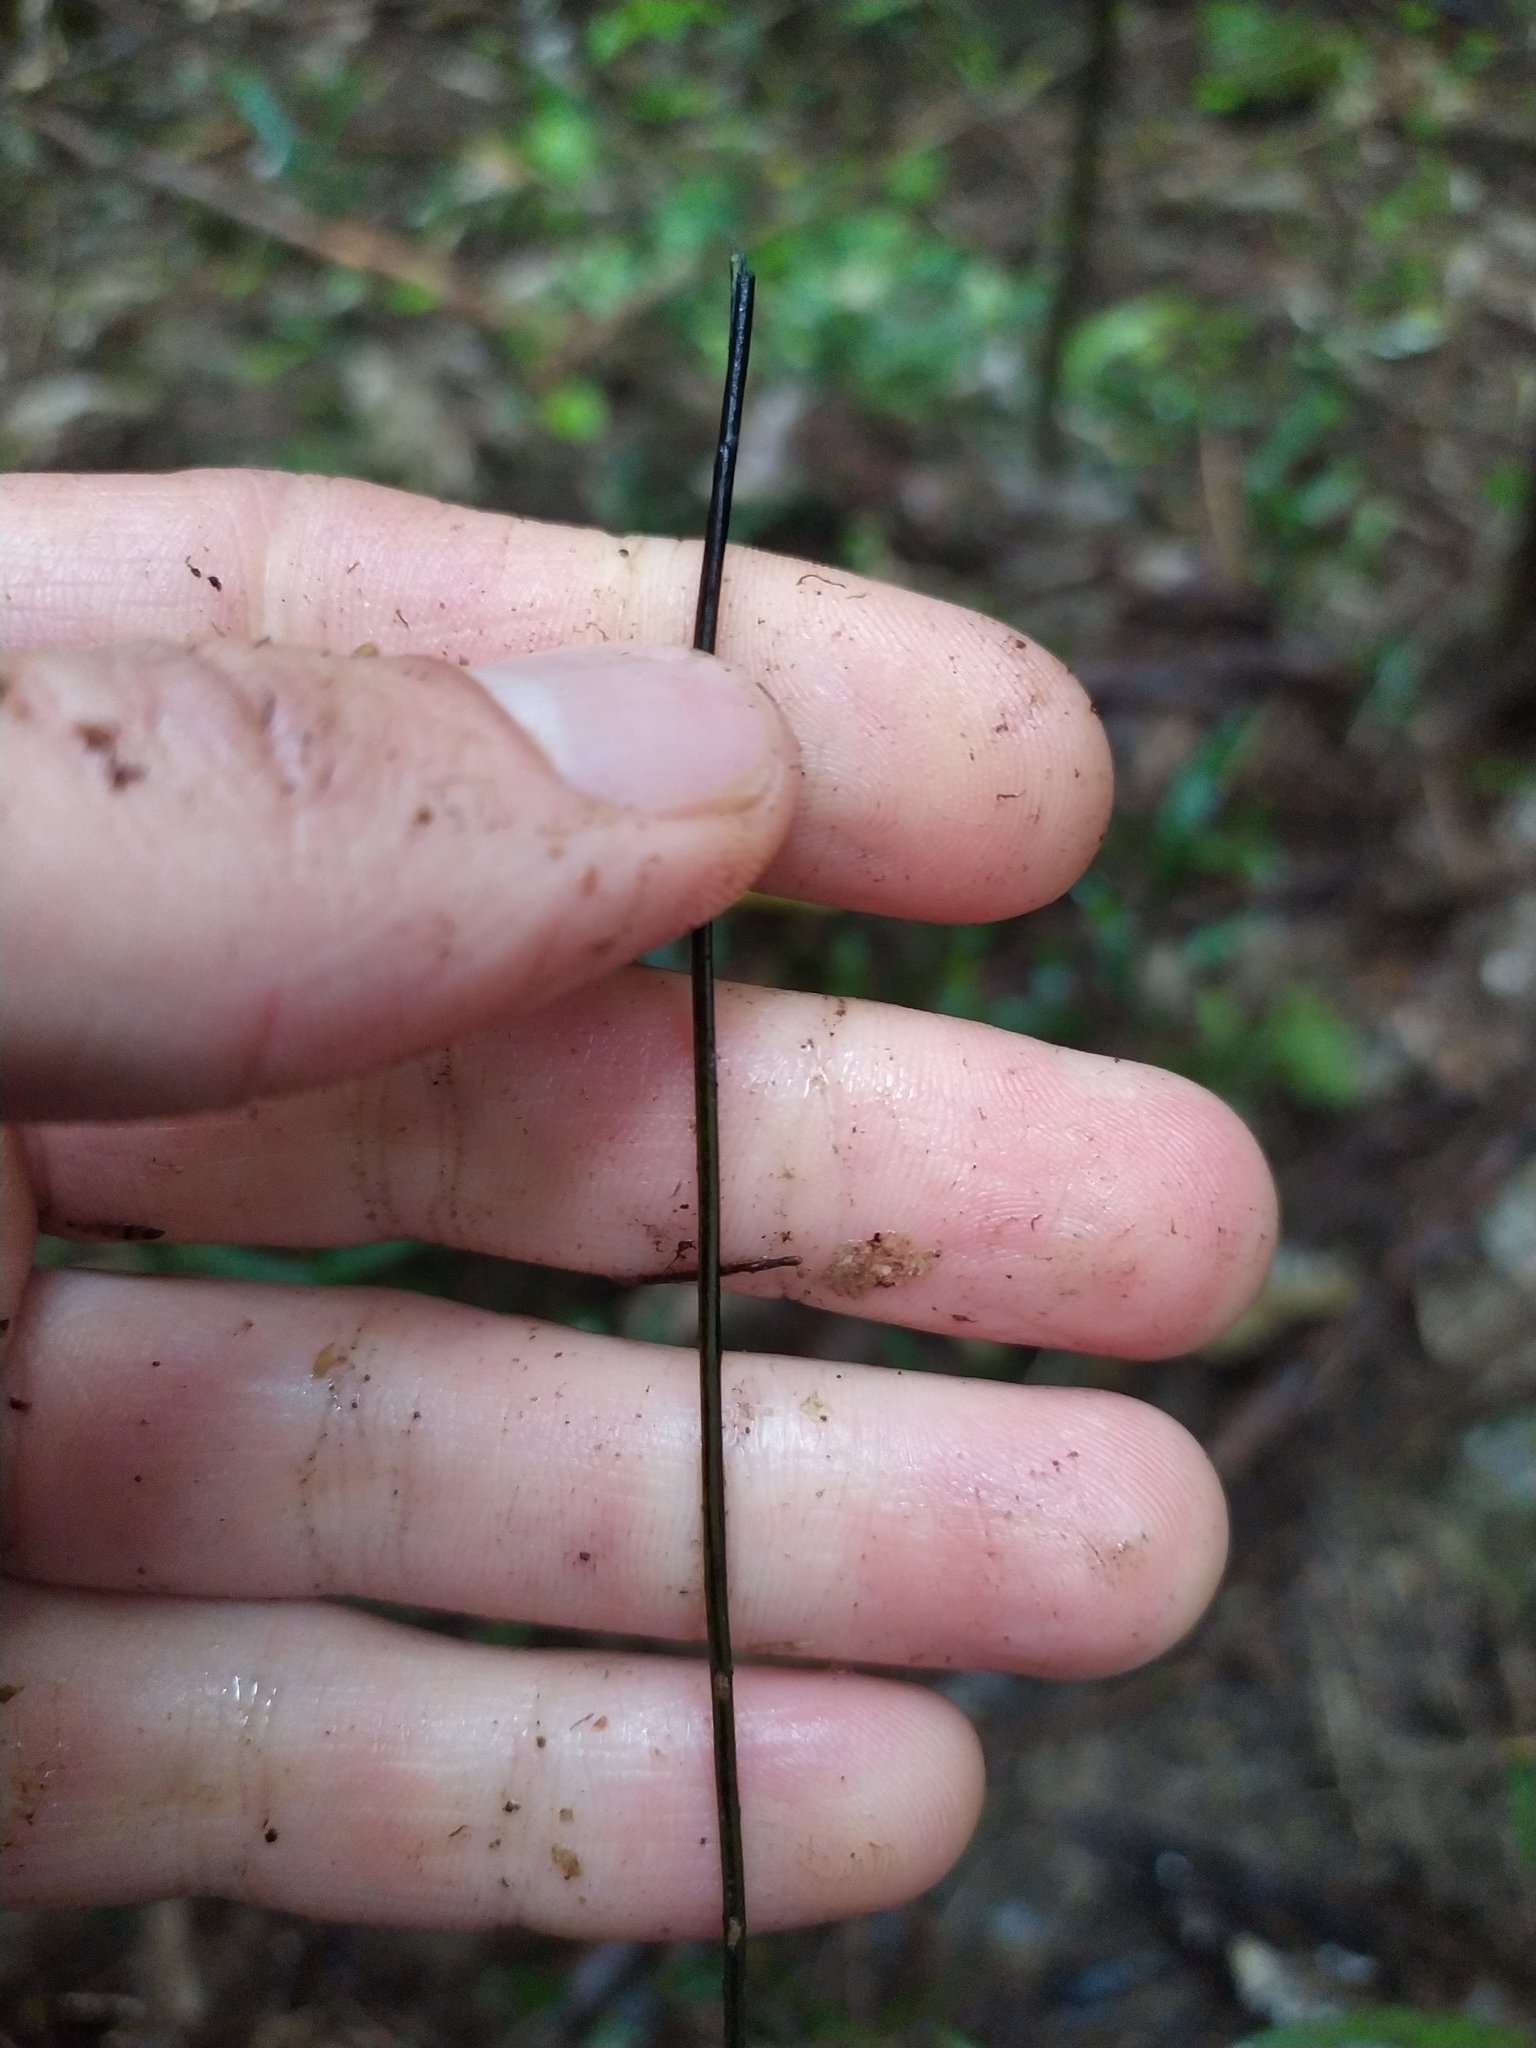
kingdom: Plantae
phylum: Tracheophyta
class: Polypodiopsida
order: Polypodiales
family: Blechnaceae
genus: Doodia
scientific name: Doodia mollis
